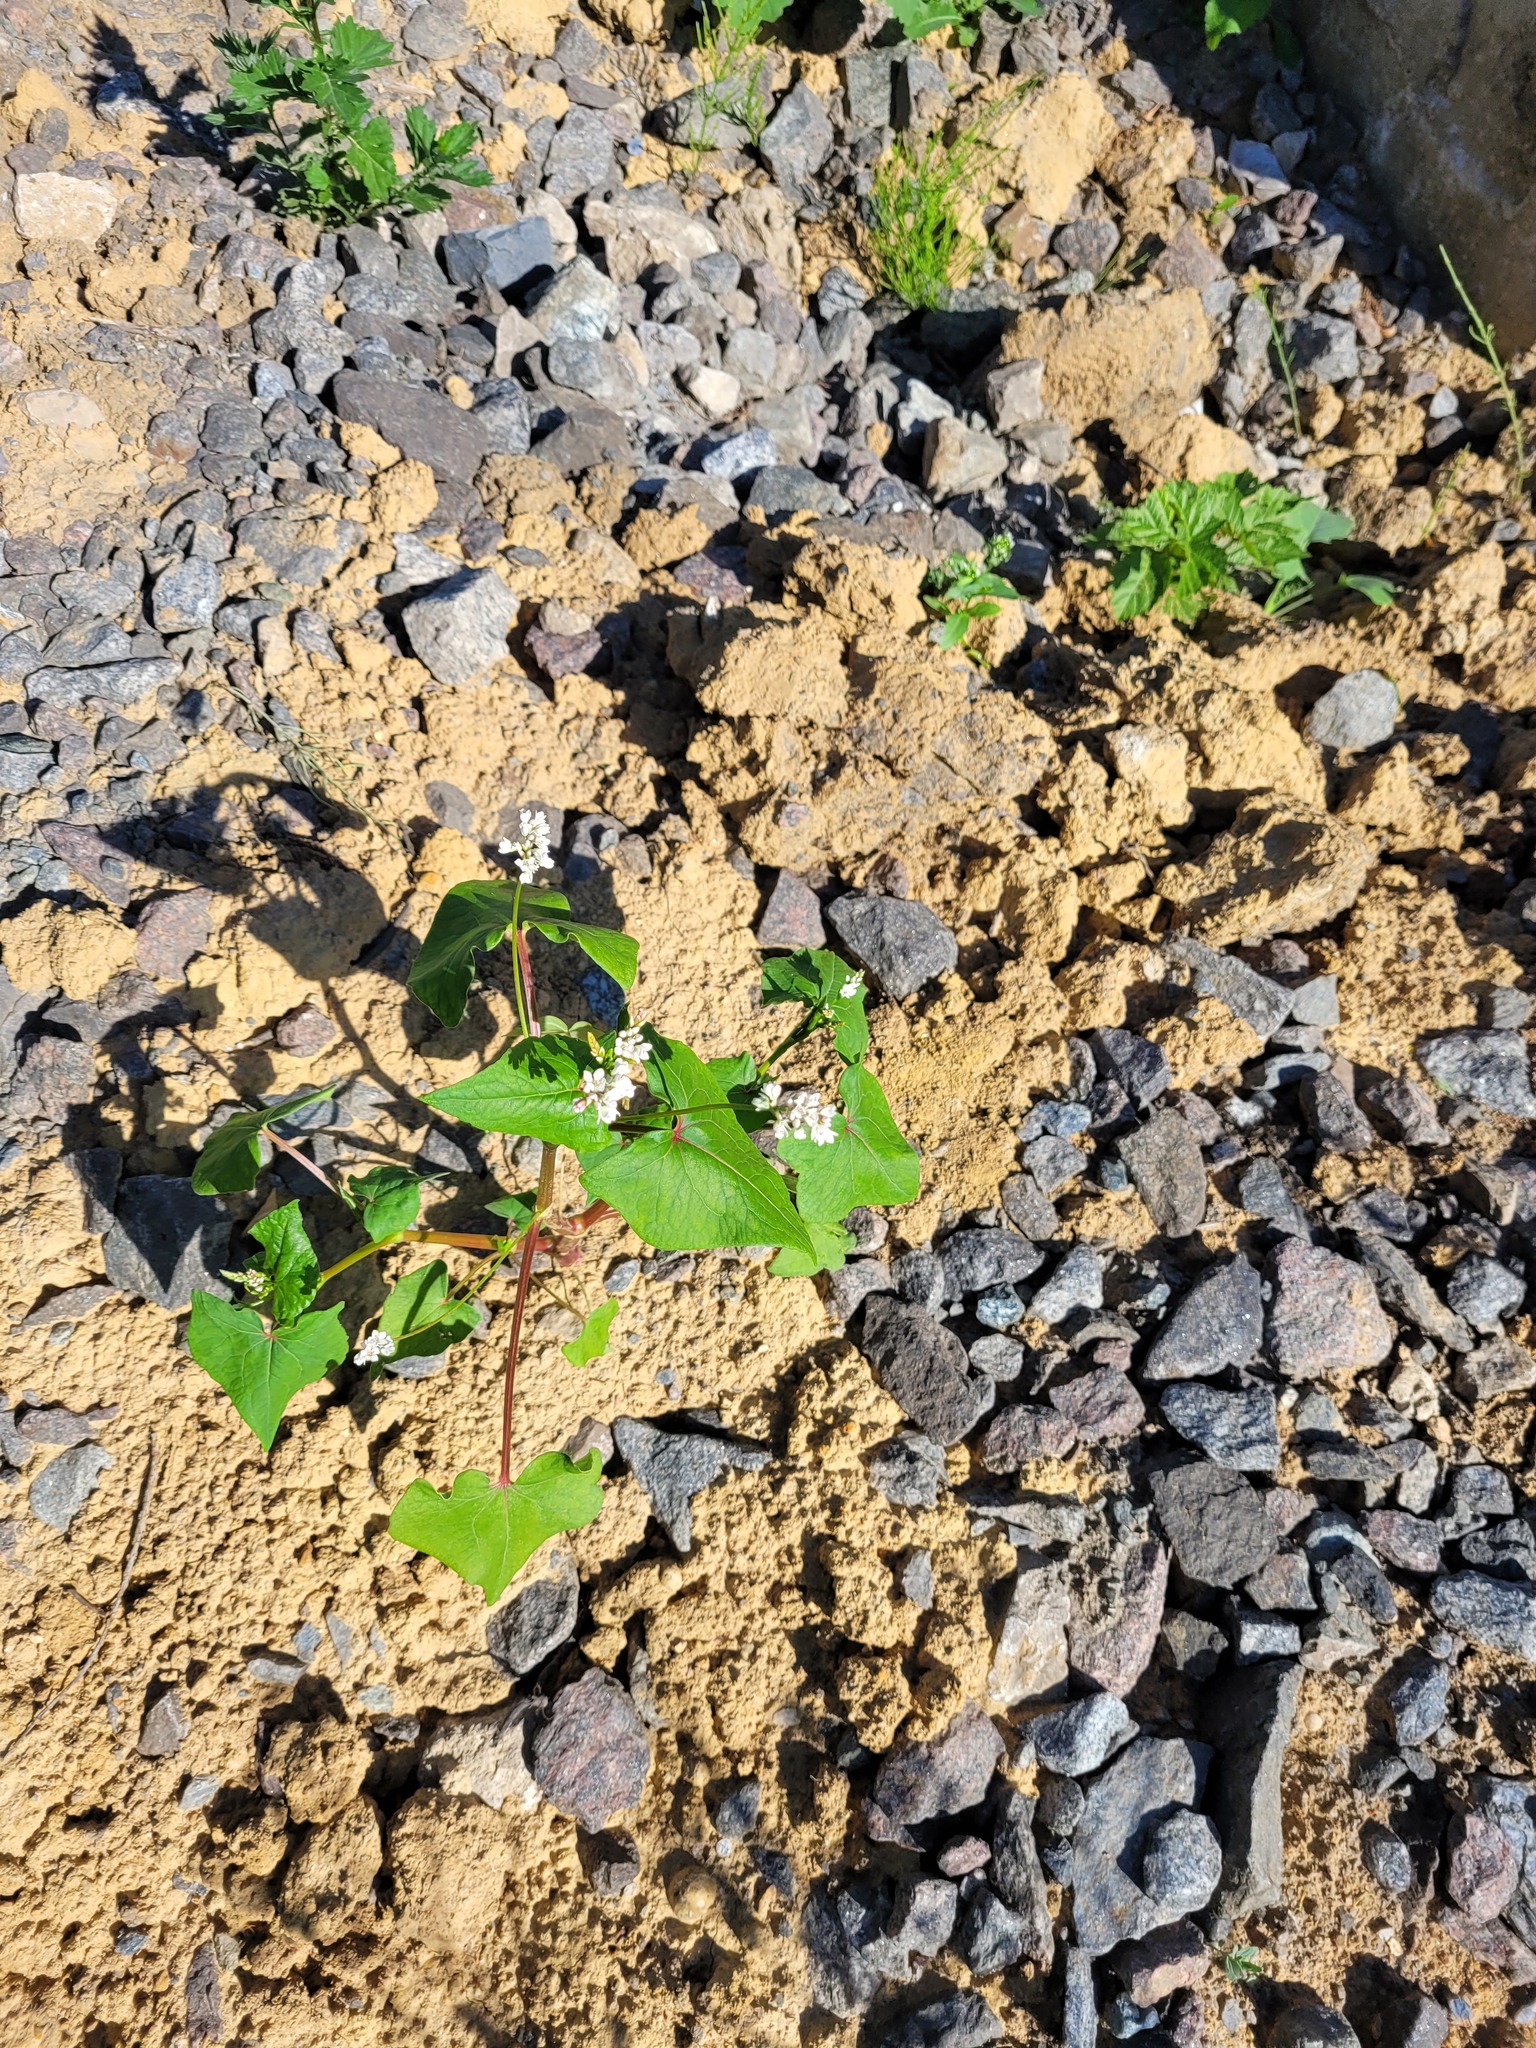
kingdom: Plantae
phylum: Tracheophyta
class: Magnoliopsida
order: Caryophyllales
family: Polygonaceae
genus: Fagopyrum
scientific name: Fagopyrum esculentum
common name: Buckwheat
